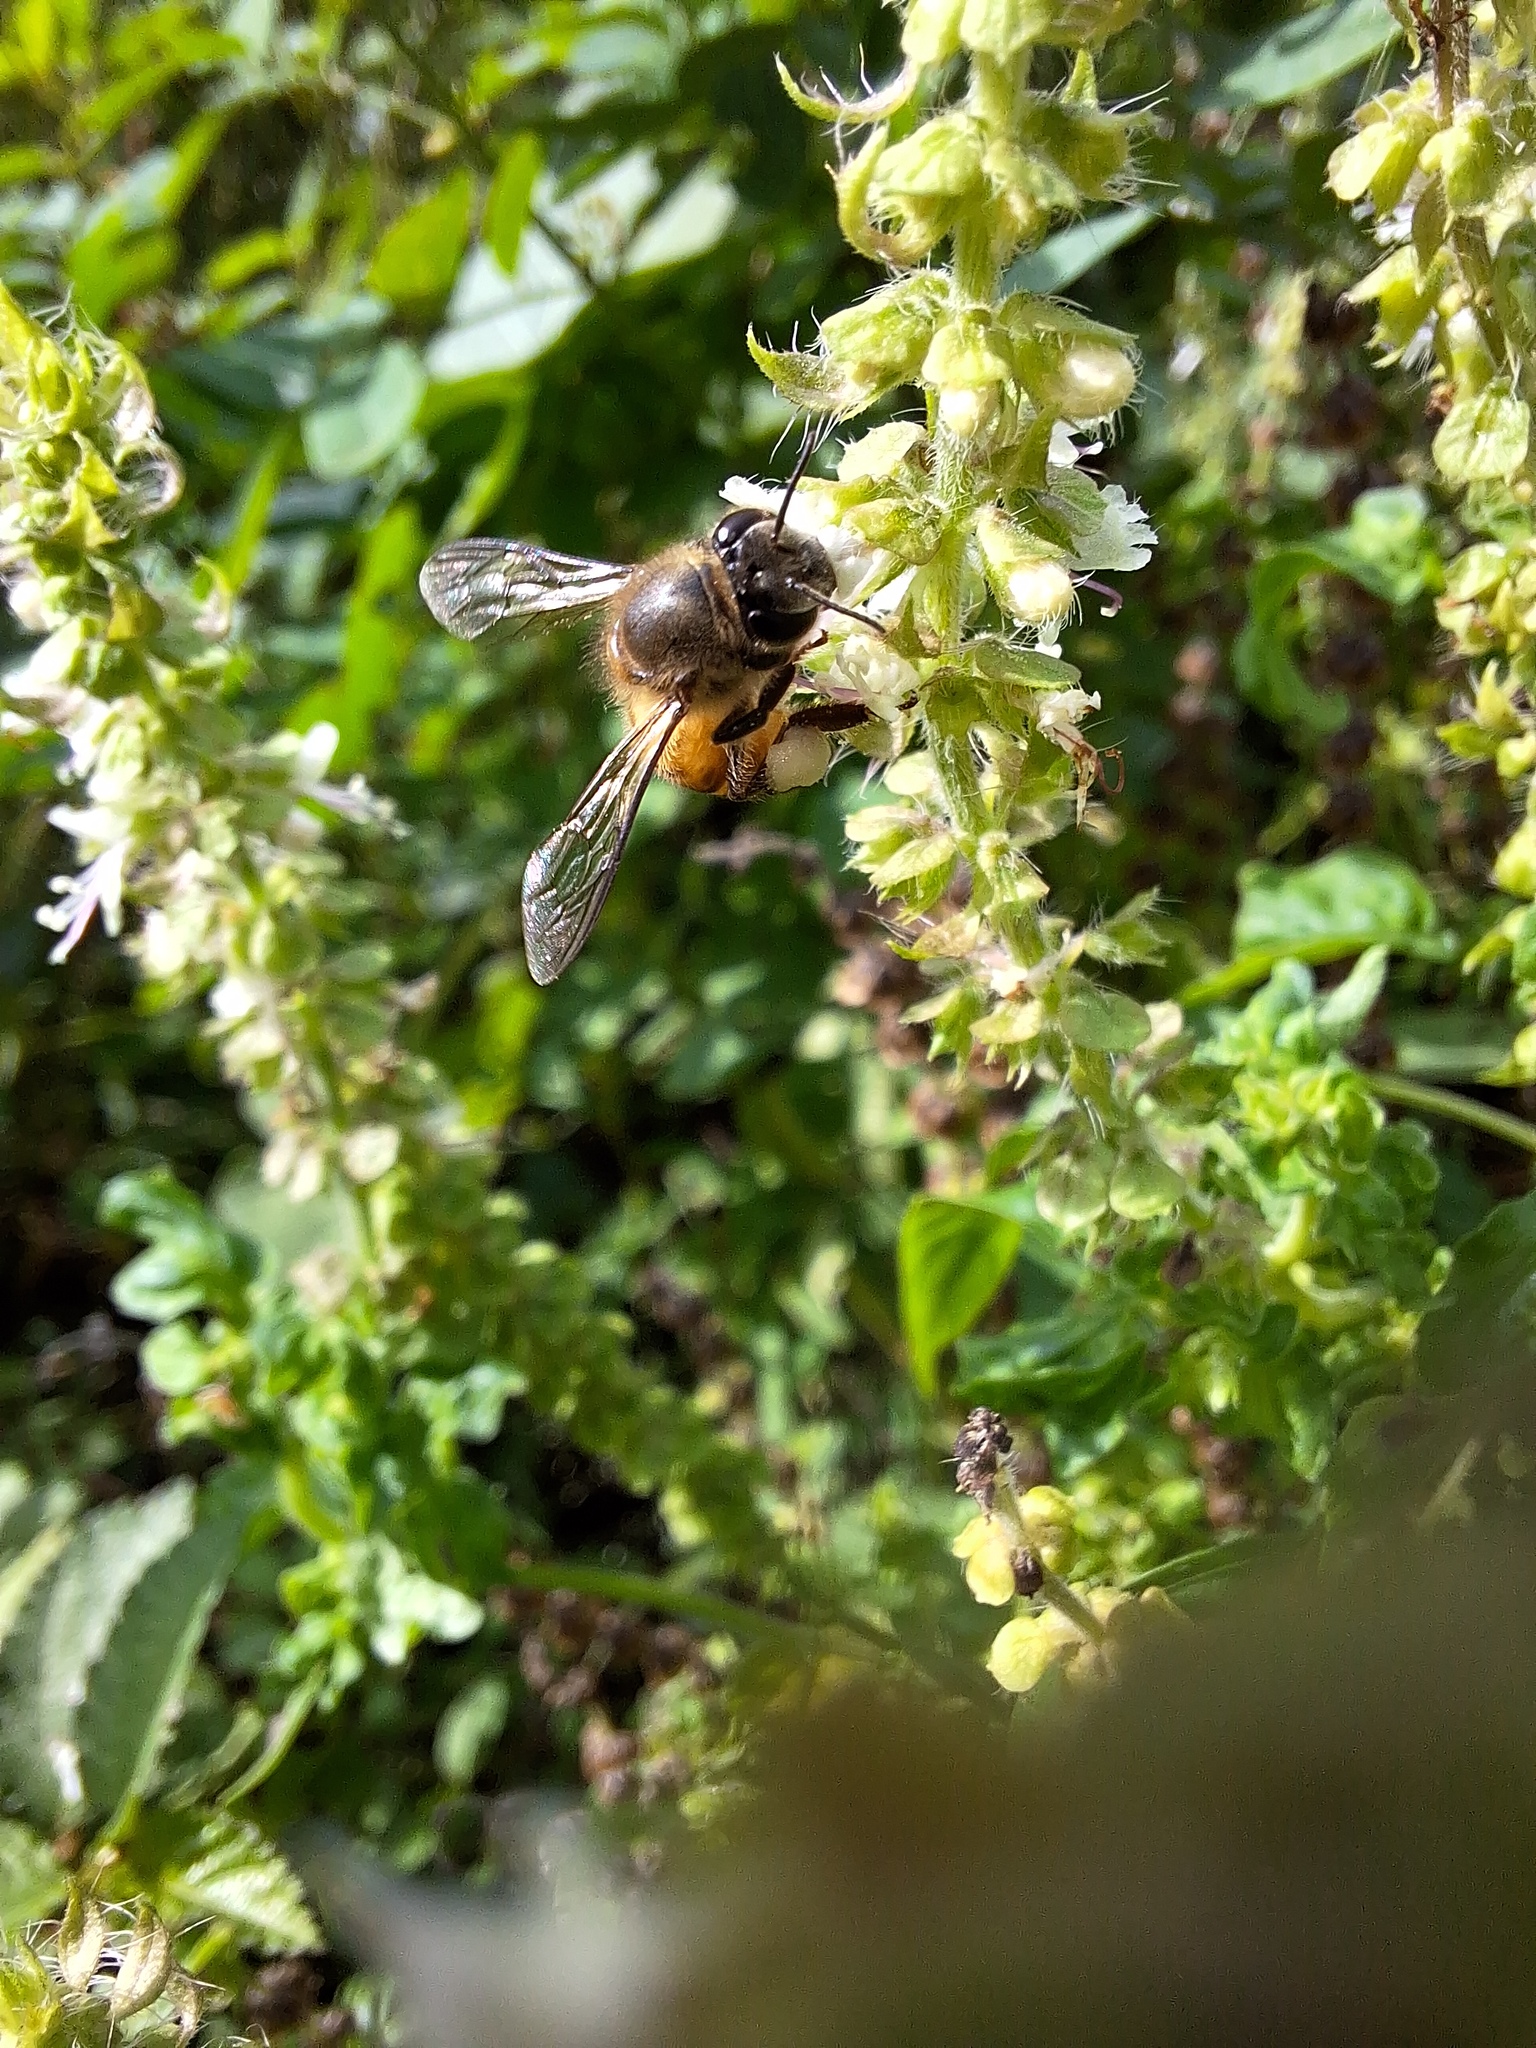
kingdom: Animalia
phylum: Arthropoda
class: Insecta
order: Hymenoptera
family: Apidae
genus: Apis
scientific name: Apis cerana
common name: Honey bee
